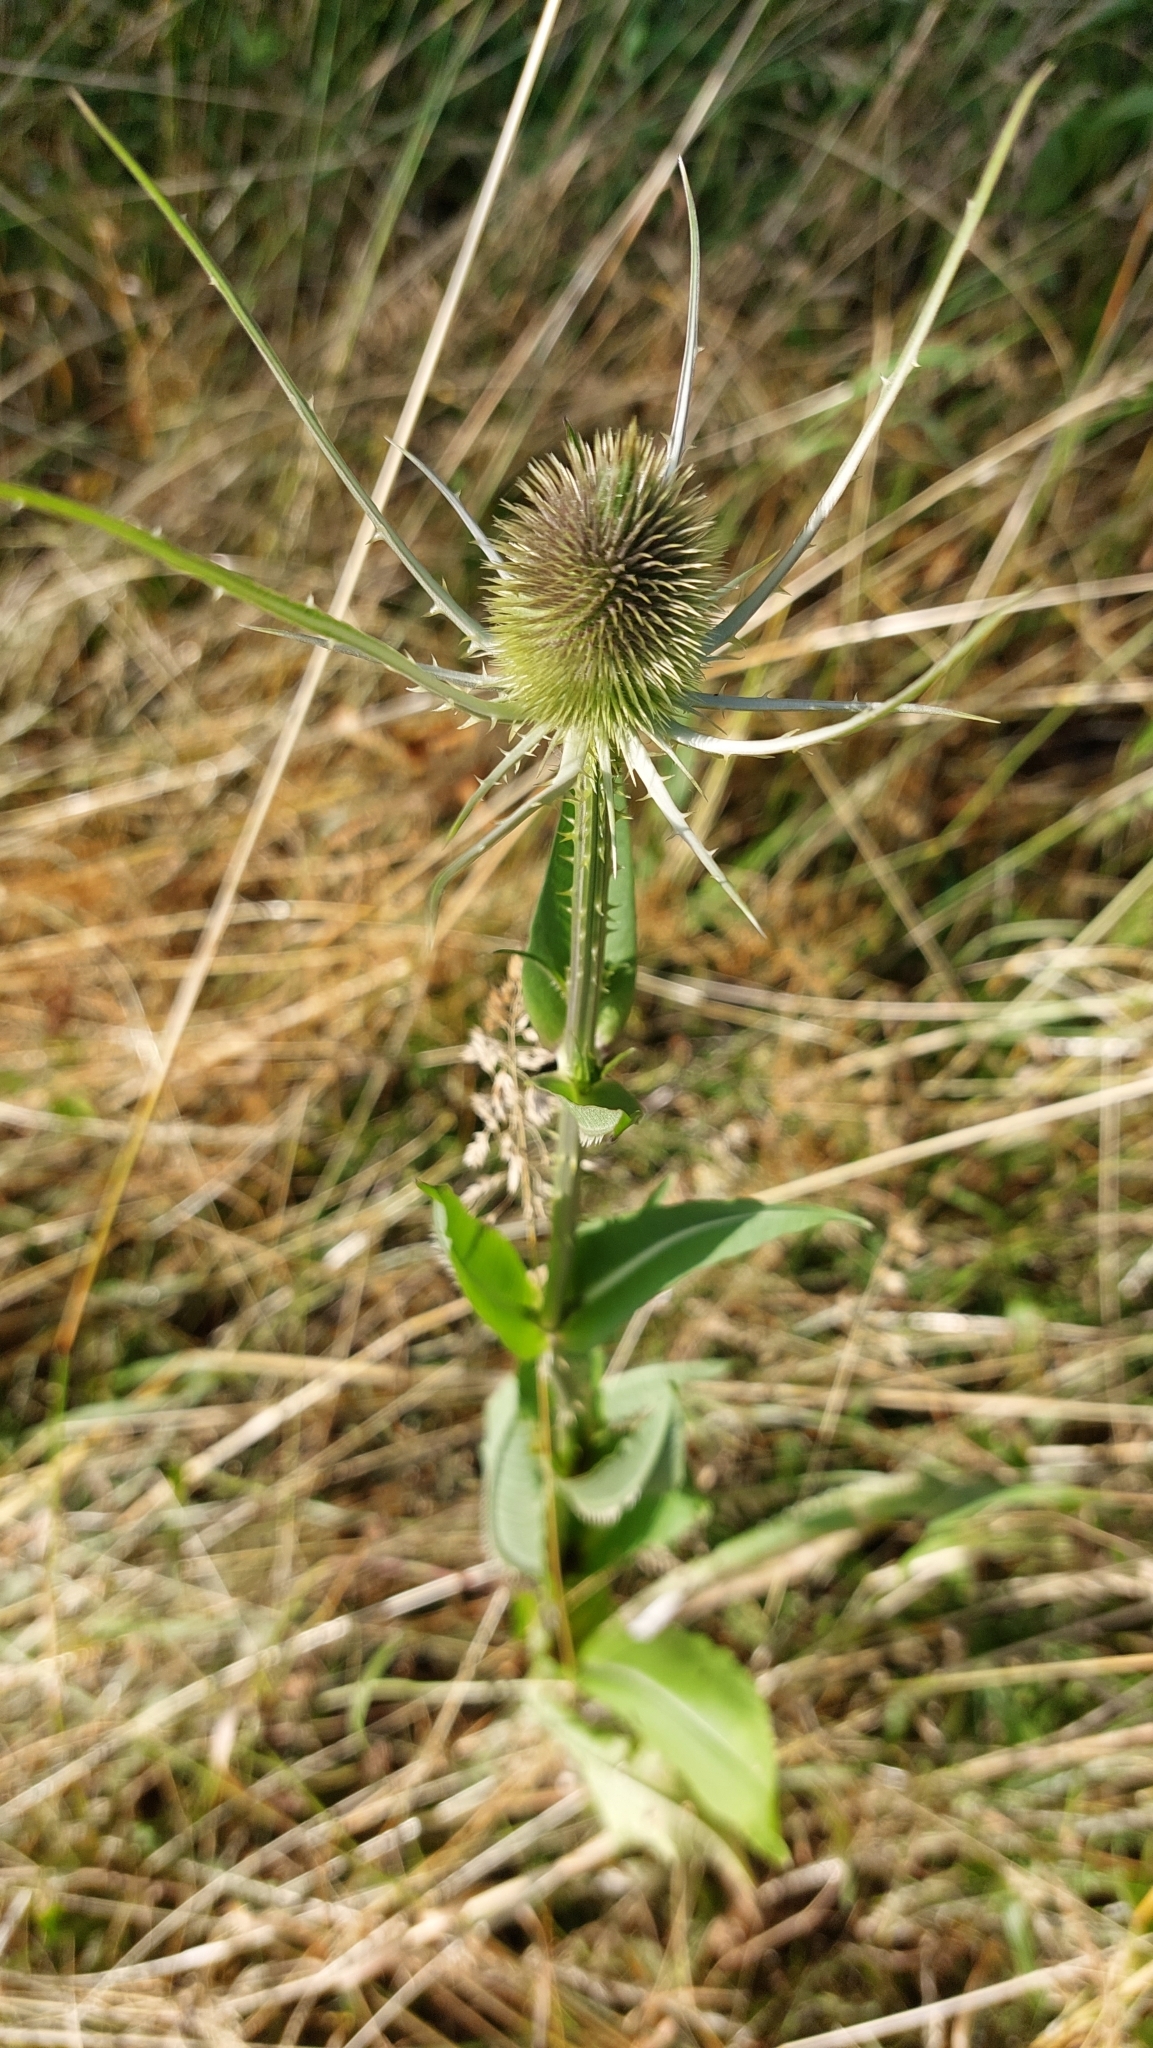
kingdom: Plantae
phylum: Tracheophyta
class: Magnoliopsida
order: Dipsacales
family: Caprifoliaceae
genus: Dipsacus
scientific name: Dipsacus fullonum
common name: Teasel
